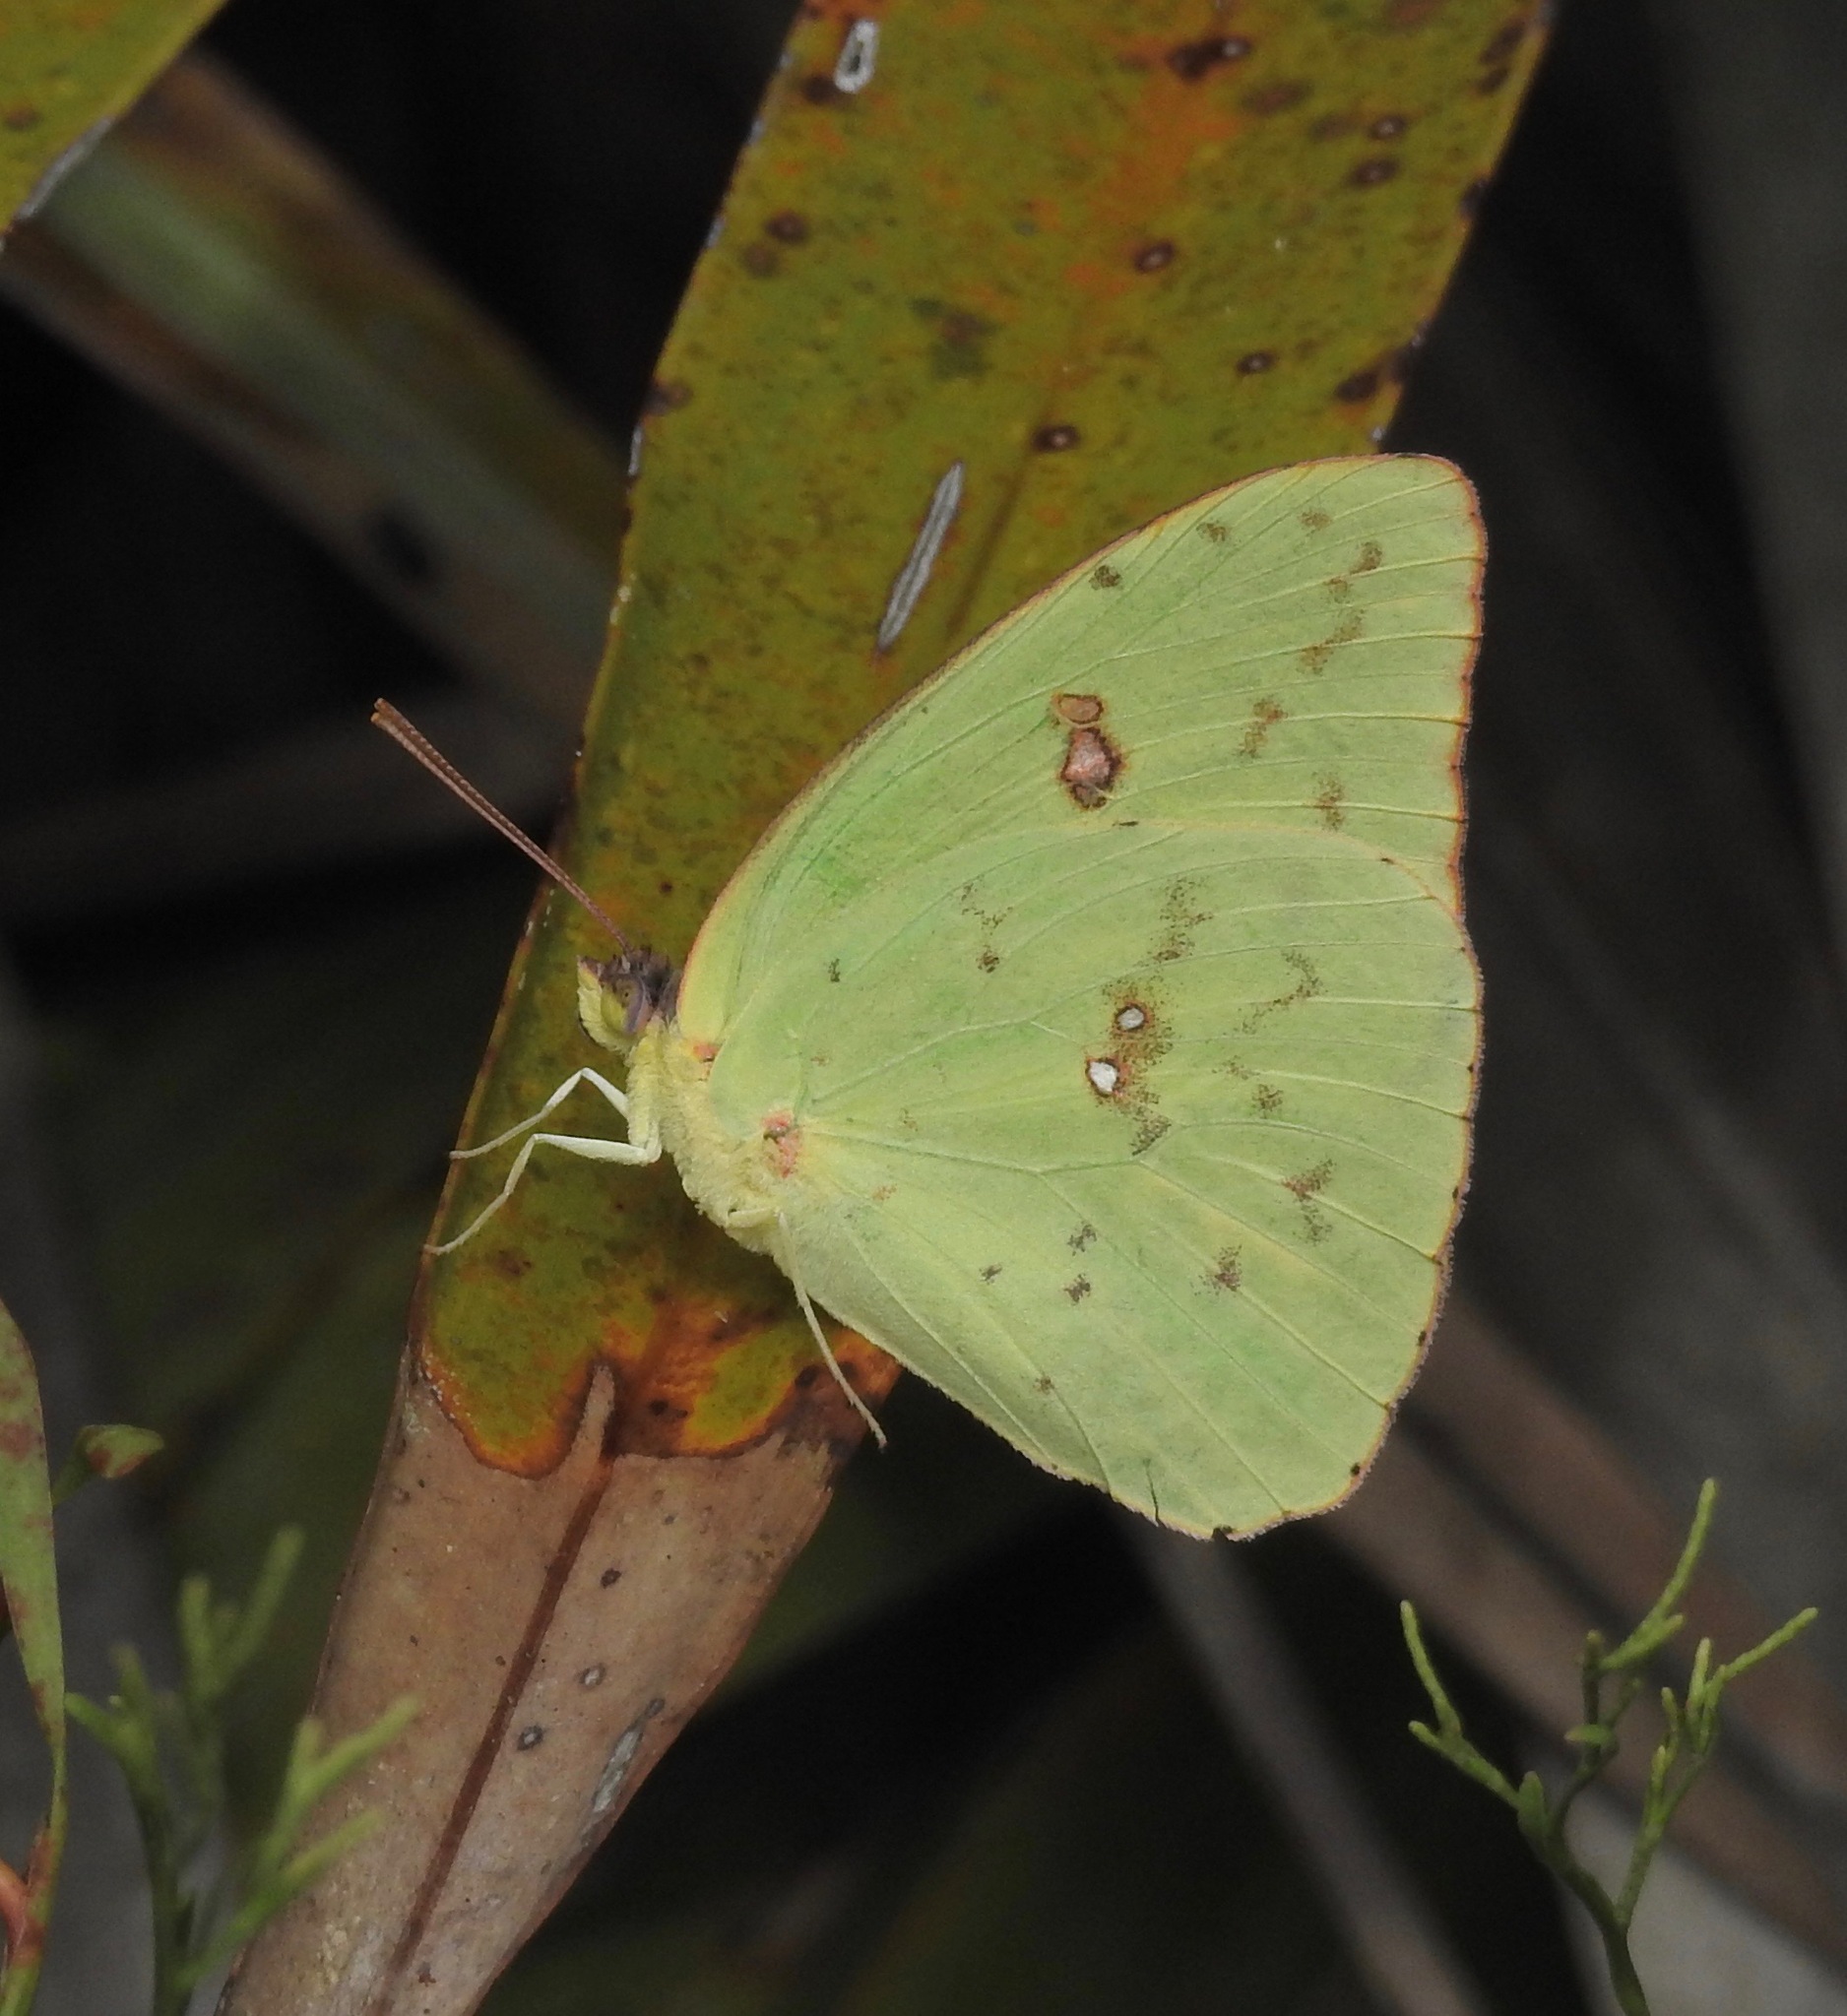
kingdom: Animalia
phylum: Arthropoda
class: Insecta
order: Lepidoptera
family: Pieridae
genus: Phoebis
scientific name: Phoebis sennae
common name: Cloudless sulphur
